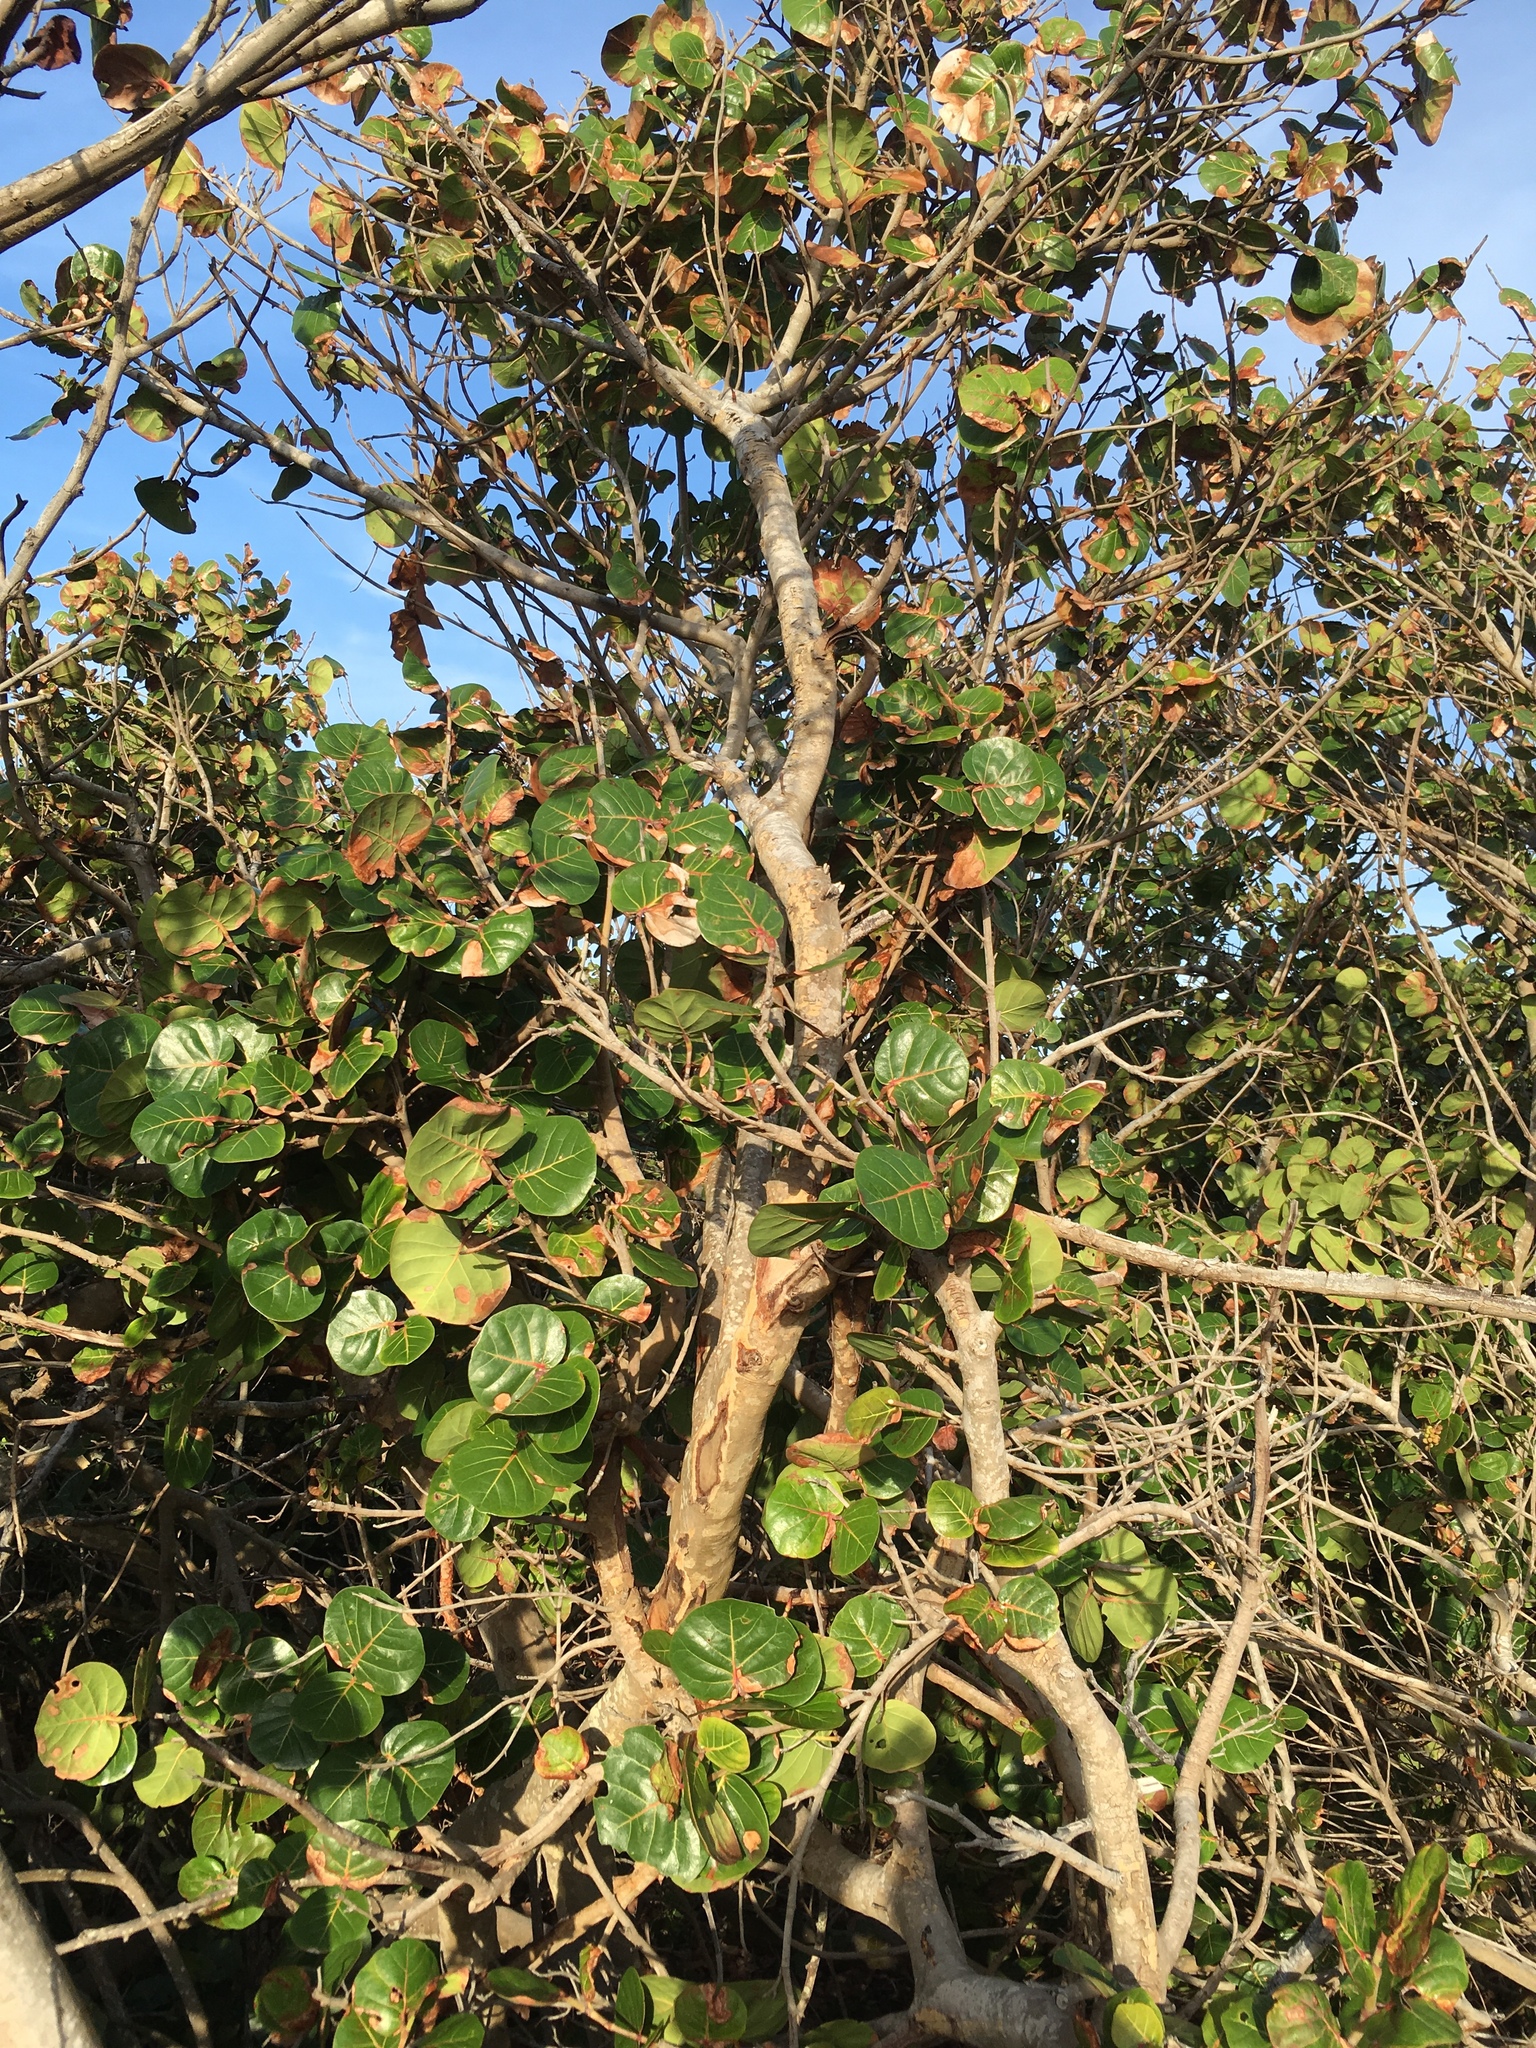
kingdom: Plantae
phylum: Tracheophyta
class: Magnoliopsida
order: Caryophyllales
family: Polygonaceae
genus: Coccoloba
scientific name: Coccoloba uvifera
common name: Seagrape
